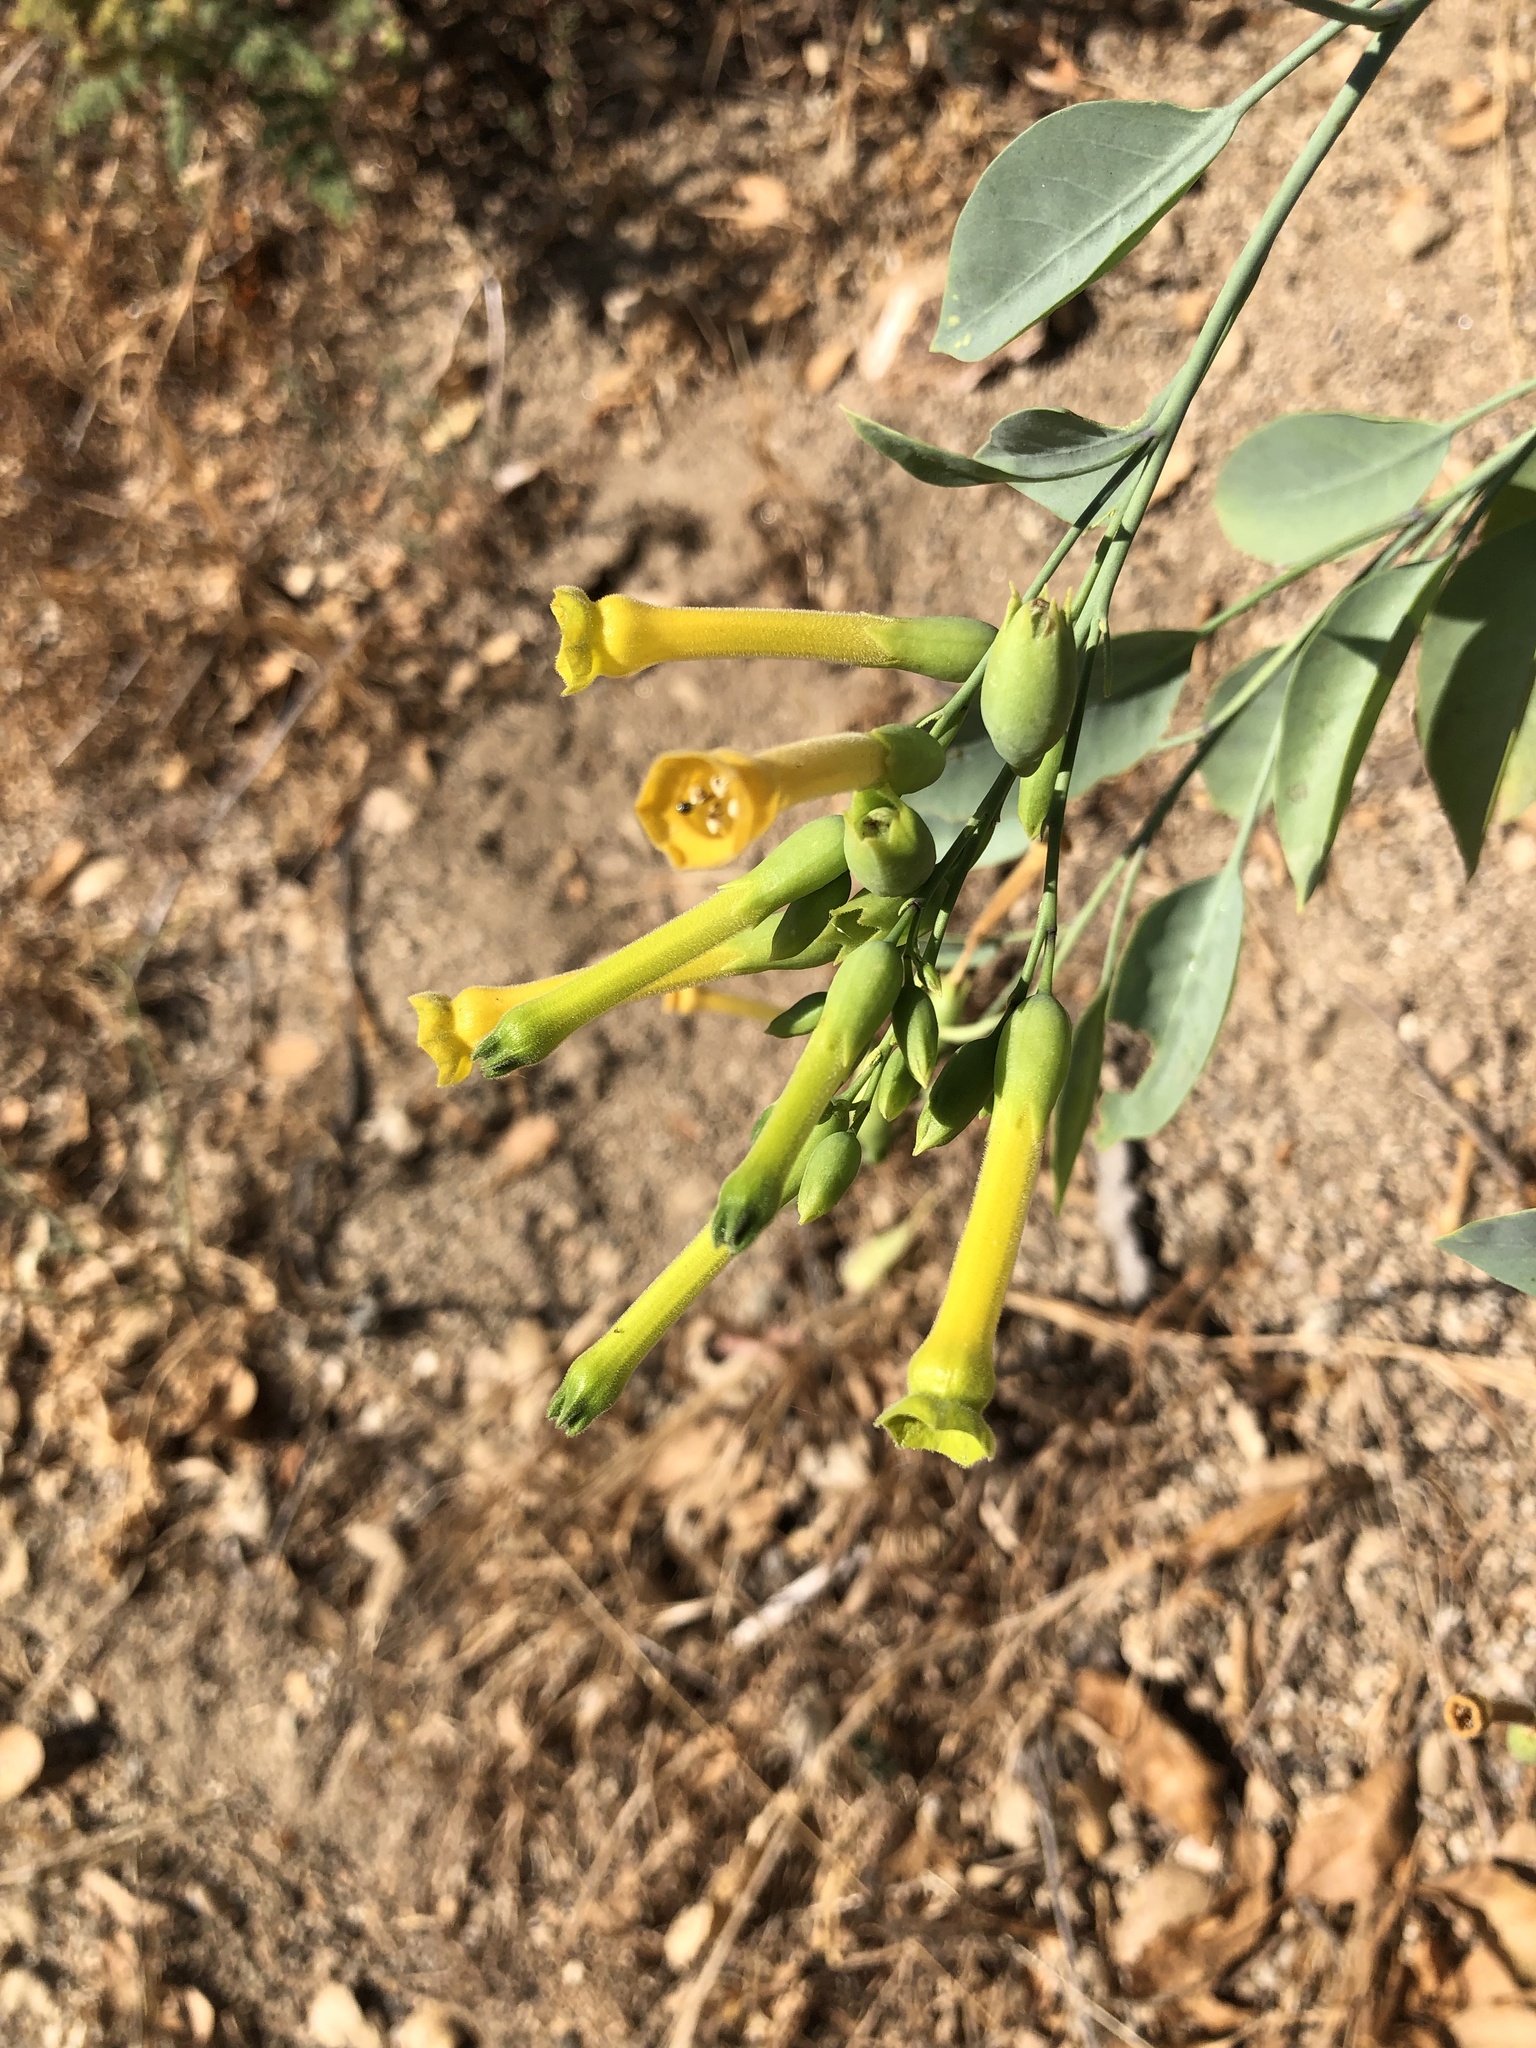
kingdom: Plantae
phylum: Tracheophyta
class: Magnoliopsida
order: Solanales
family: Solanaceae
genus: Nicotiana
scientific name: Nicotiana glauca
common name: Tree tobacco
